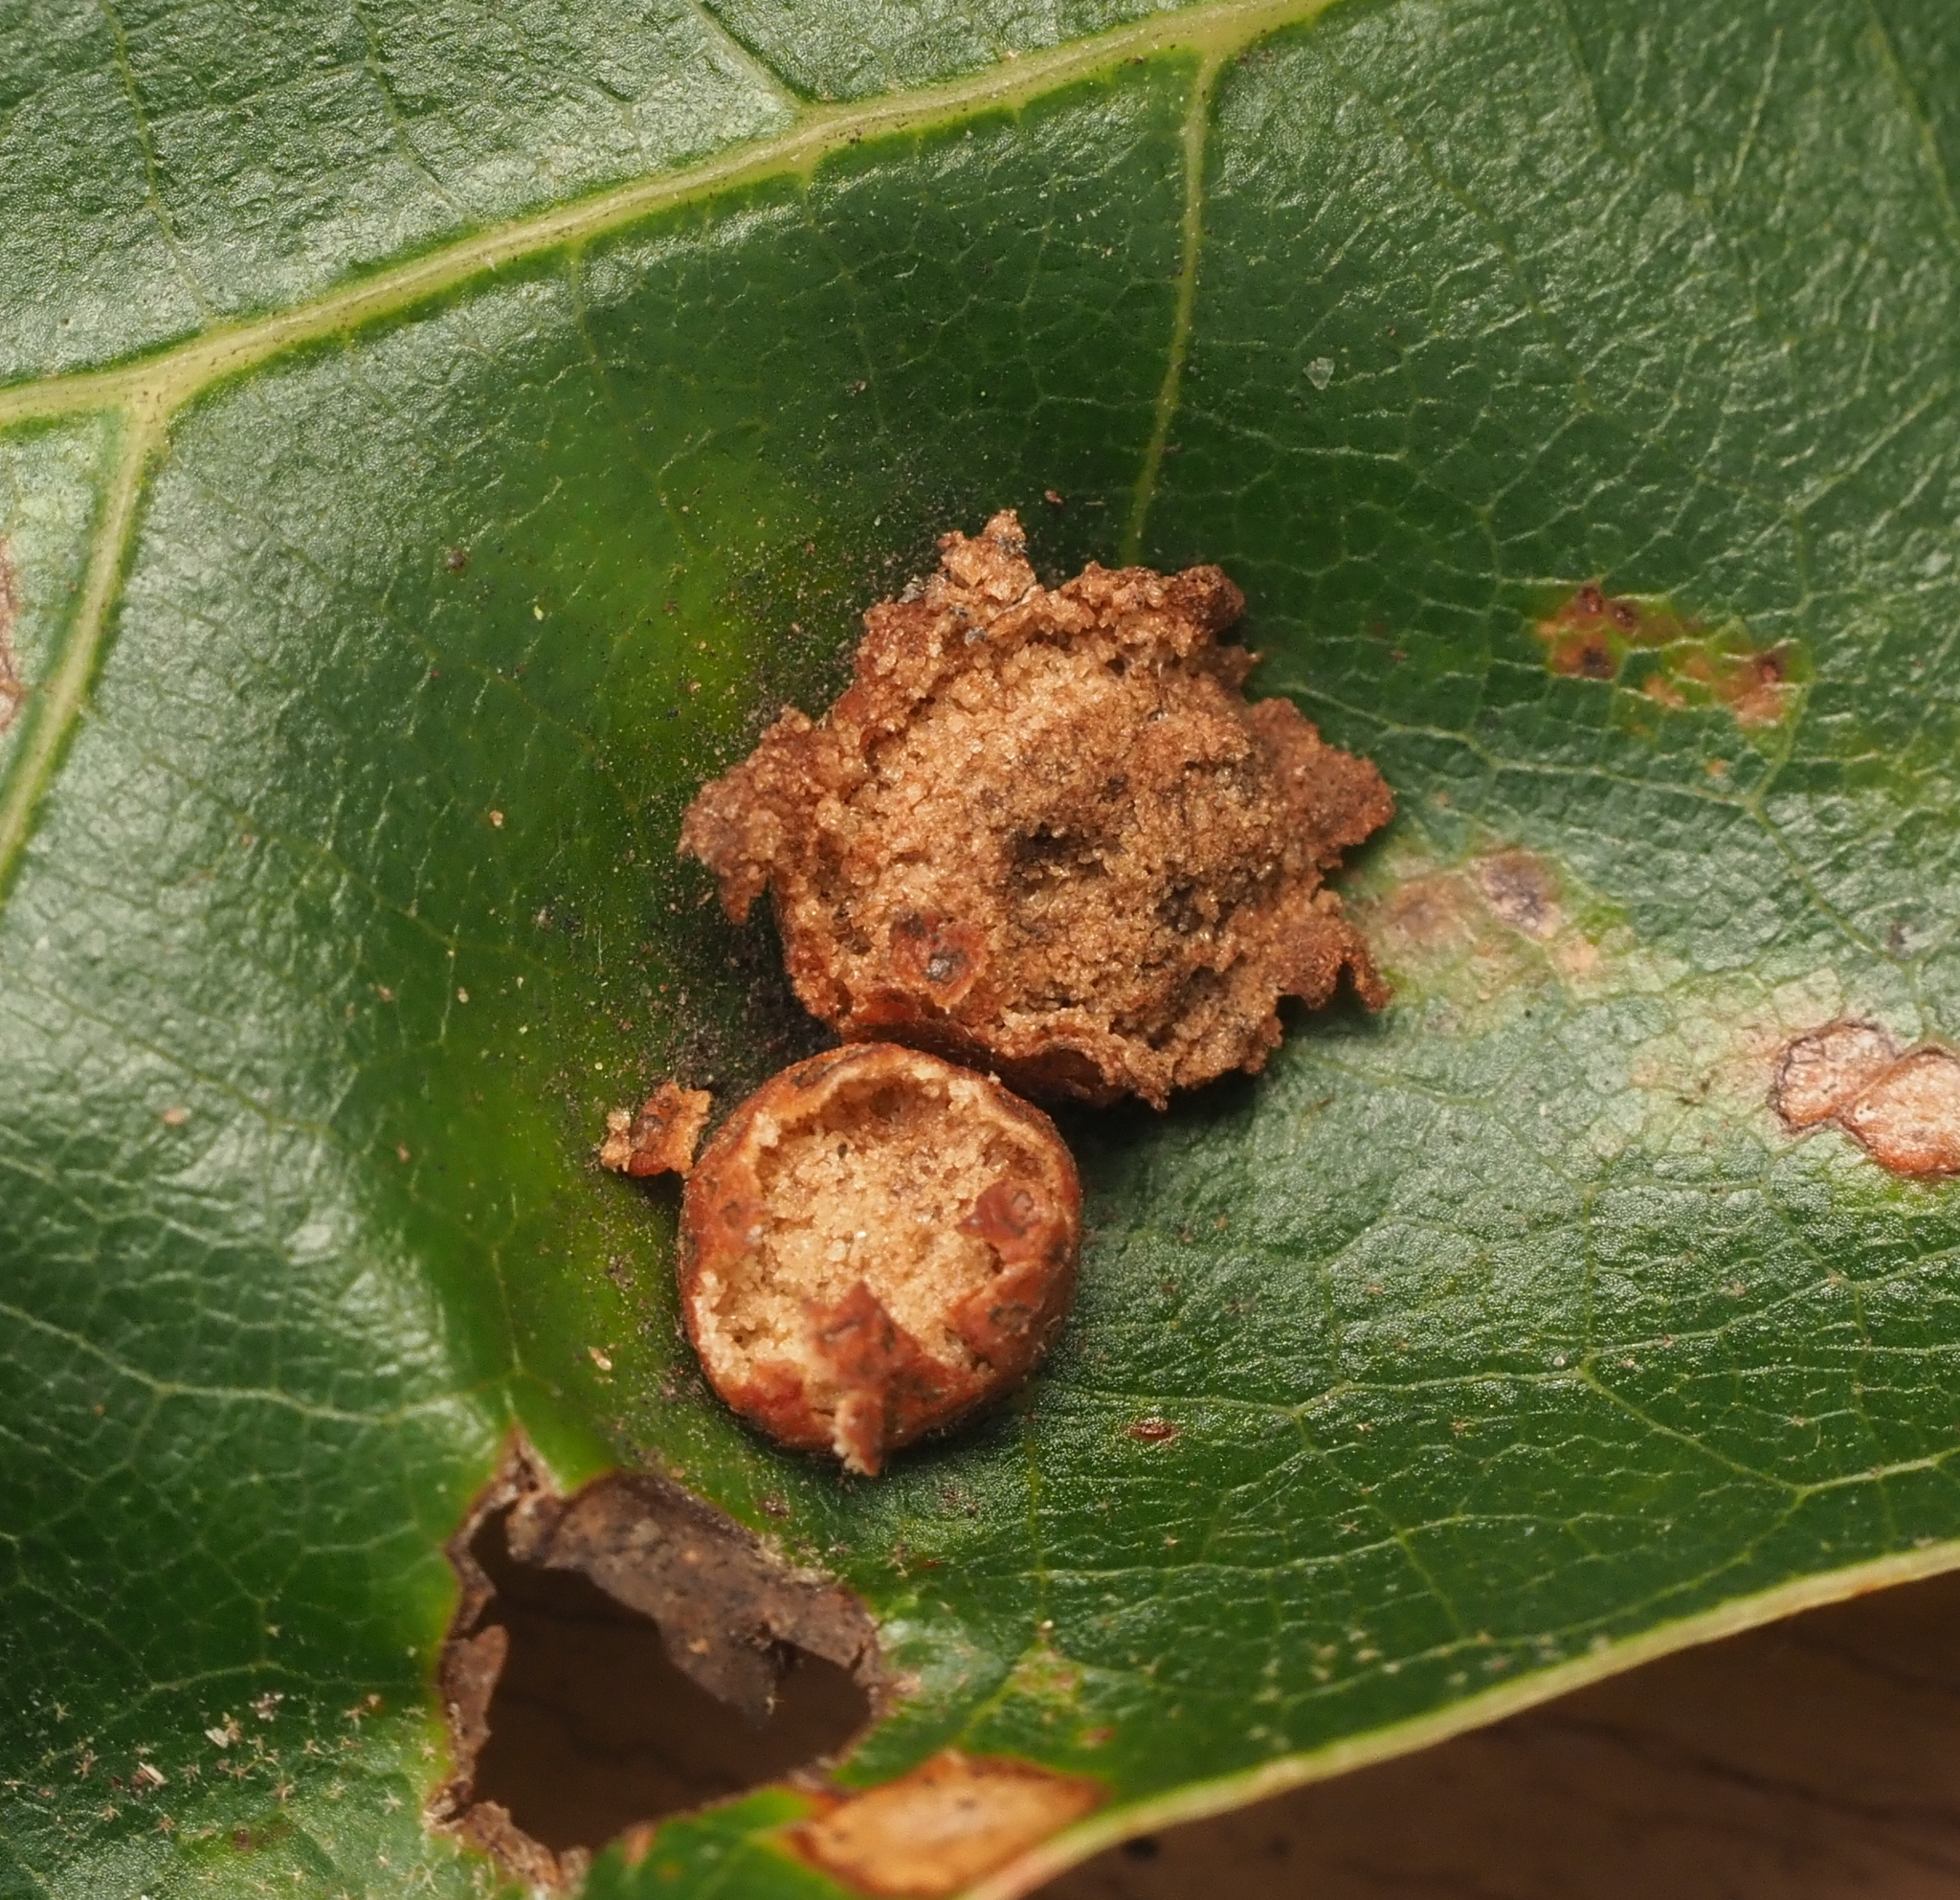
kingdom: Animalia
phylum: Arthropoda
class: Insecta
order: Diptera
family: Cecidomyiidae
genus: Polystepha
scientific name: Polystepha pilulae
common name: Oak leaf gall midge
